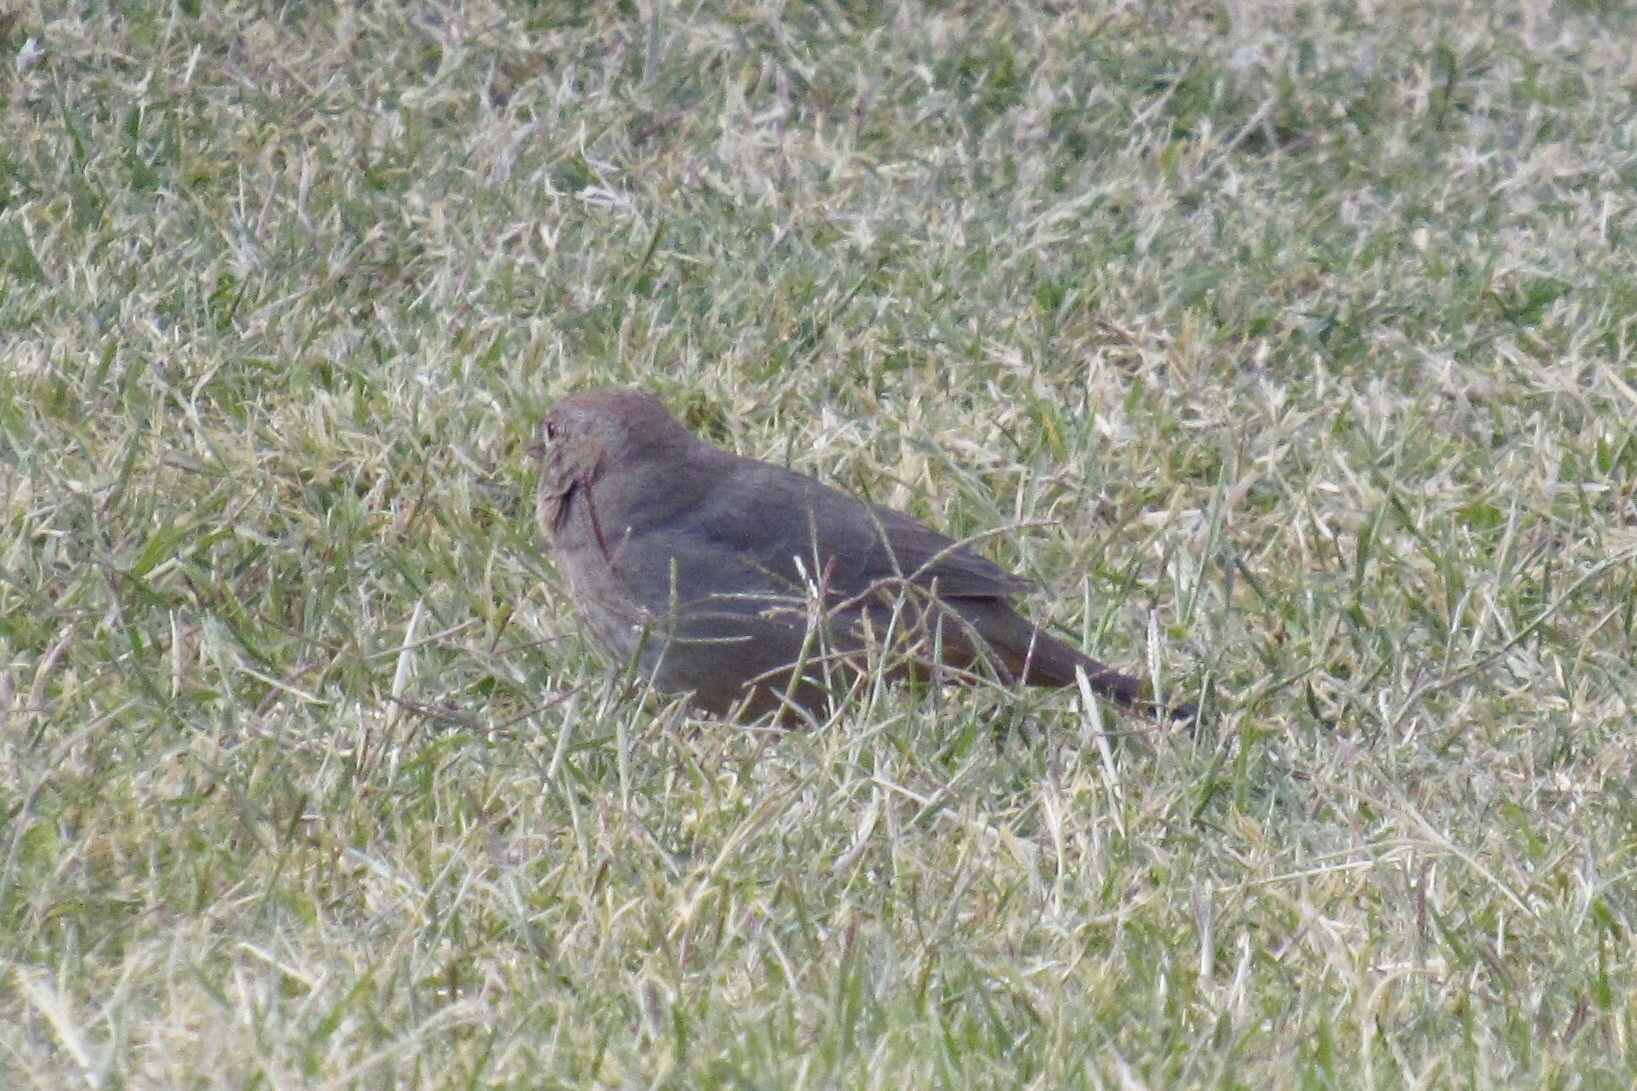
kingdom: Animalia
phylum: Chordata
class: Aves
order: Passeriformes
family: Passerellidae
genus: Melozone
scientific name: Melozone fusca
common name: Canyon towhee
